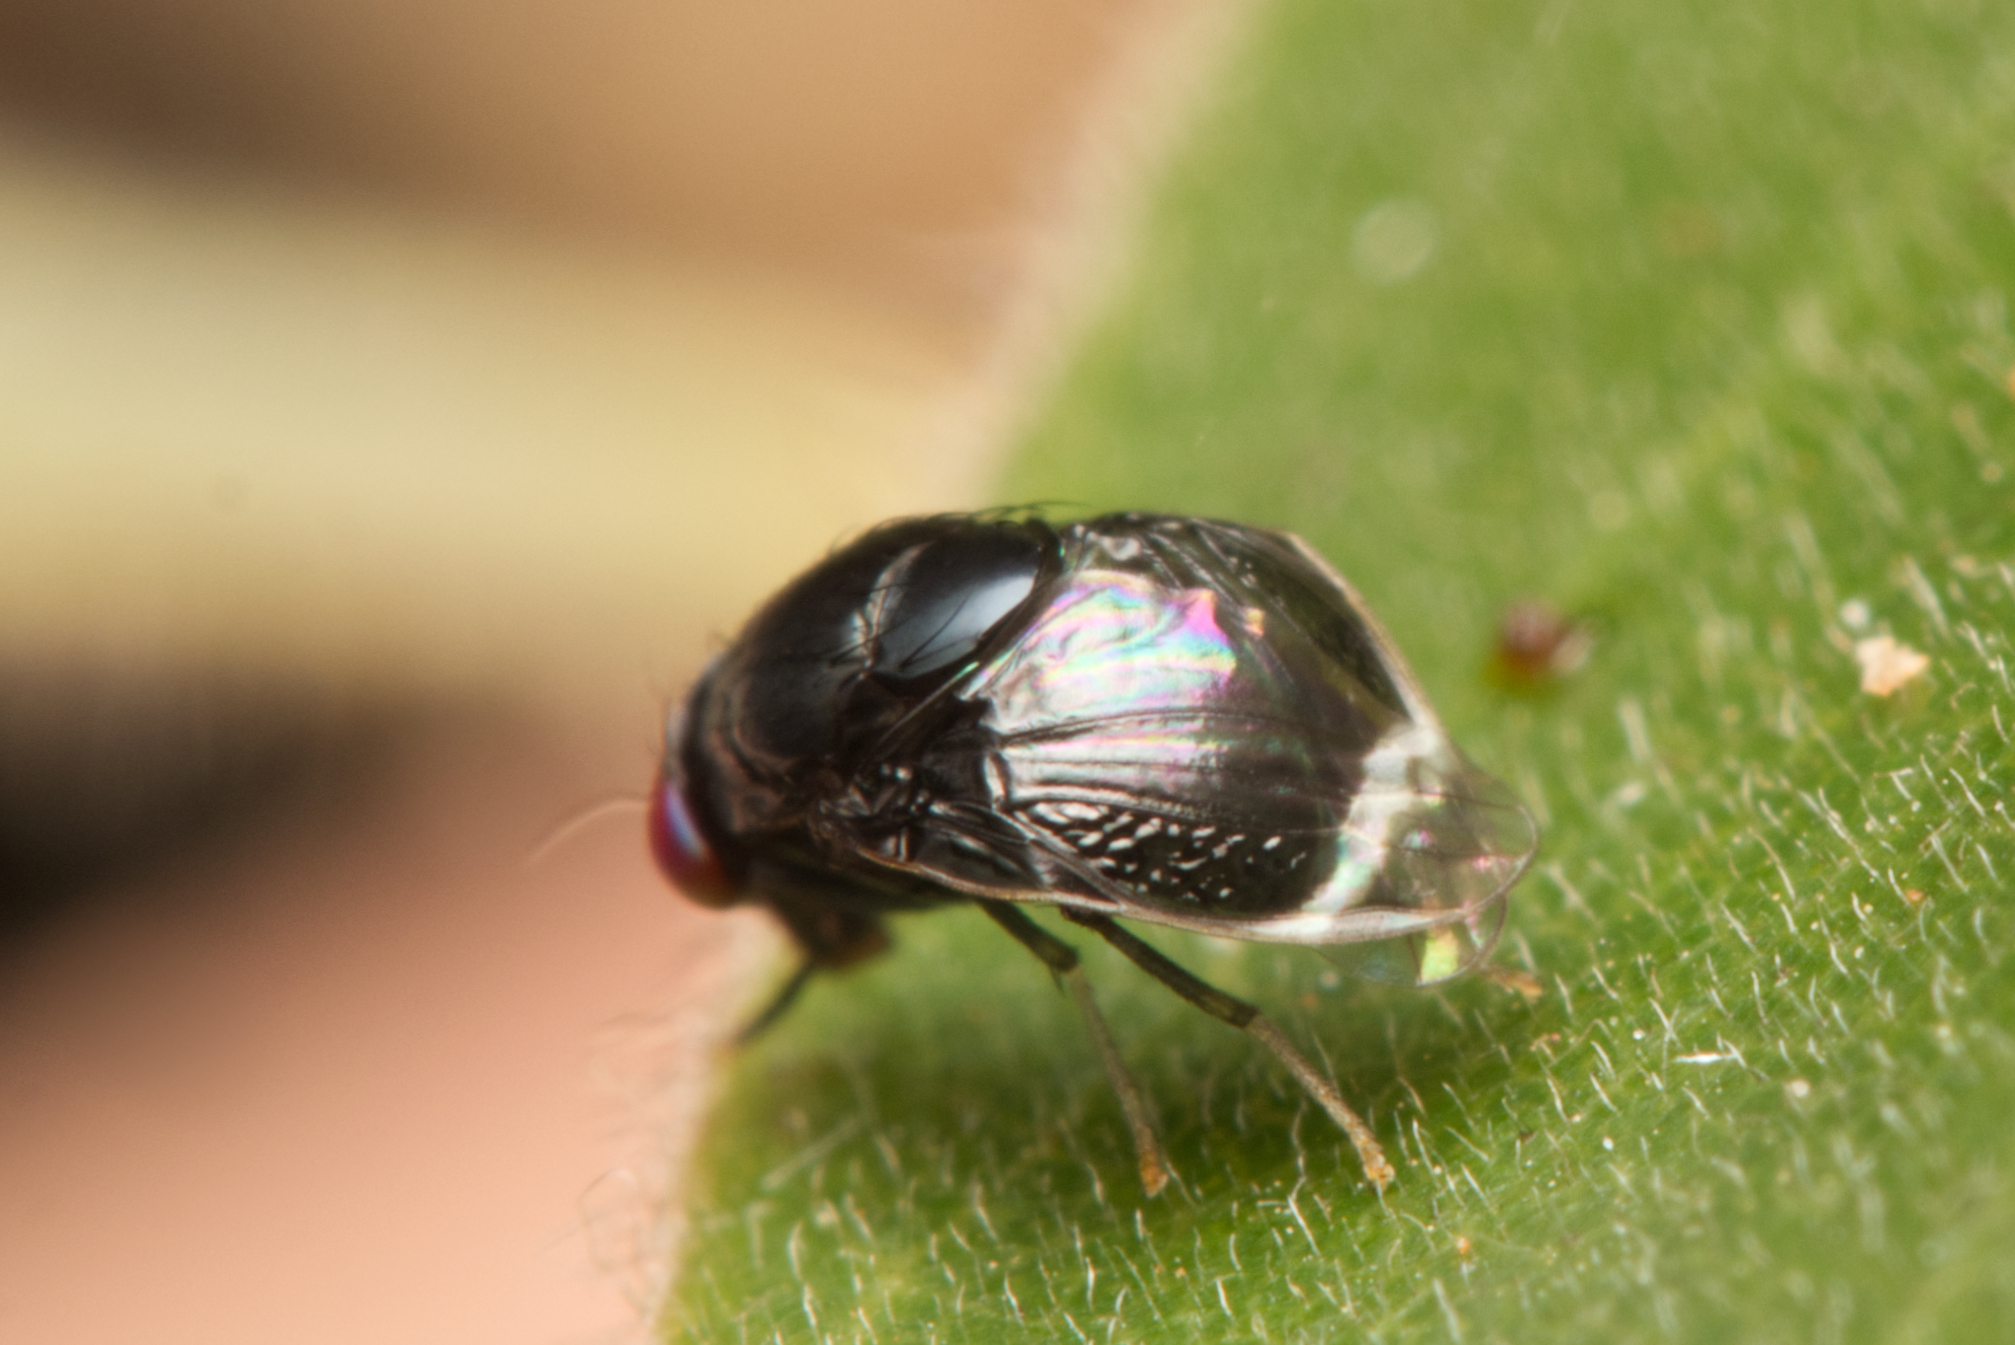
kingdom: Animalia
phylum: Arthropoda
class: Insecta
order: Diptera
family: Lauxaniidae
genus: Depressa
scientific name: Depressa albicosta
